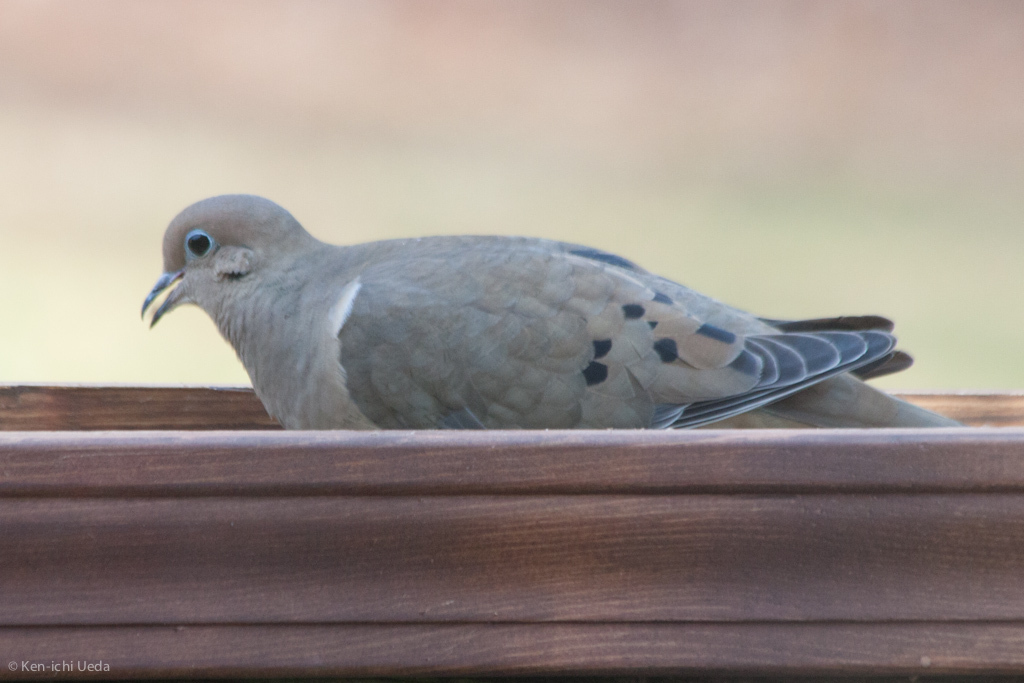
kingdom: Animalia
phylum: Chordata
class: Aves
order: Columbiformes
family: Columbidae
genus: Zenaida
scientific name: Zenaida macroura
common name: Mourning dove
